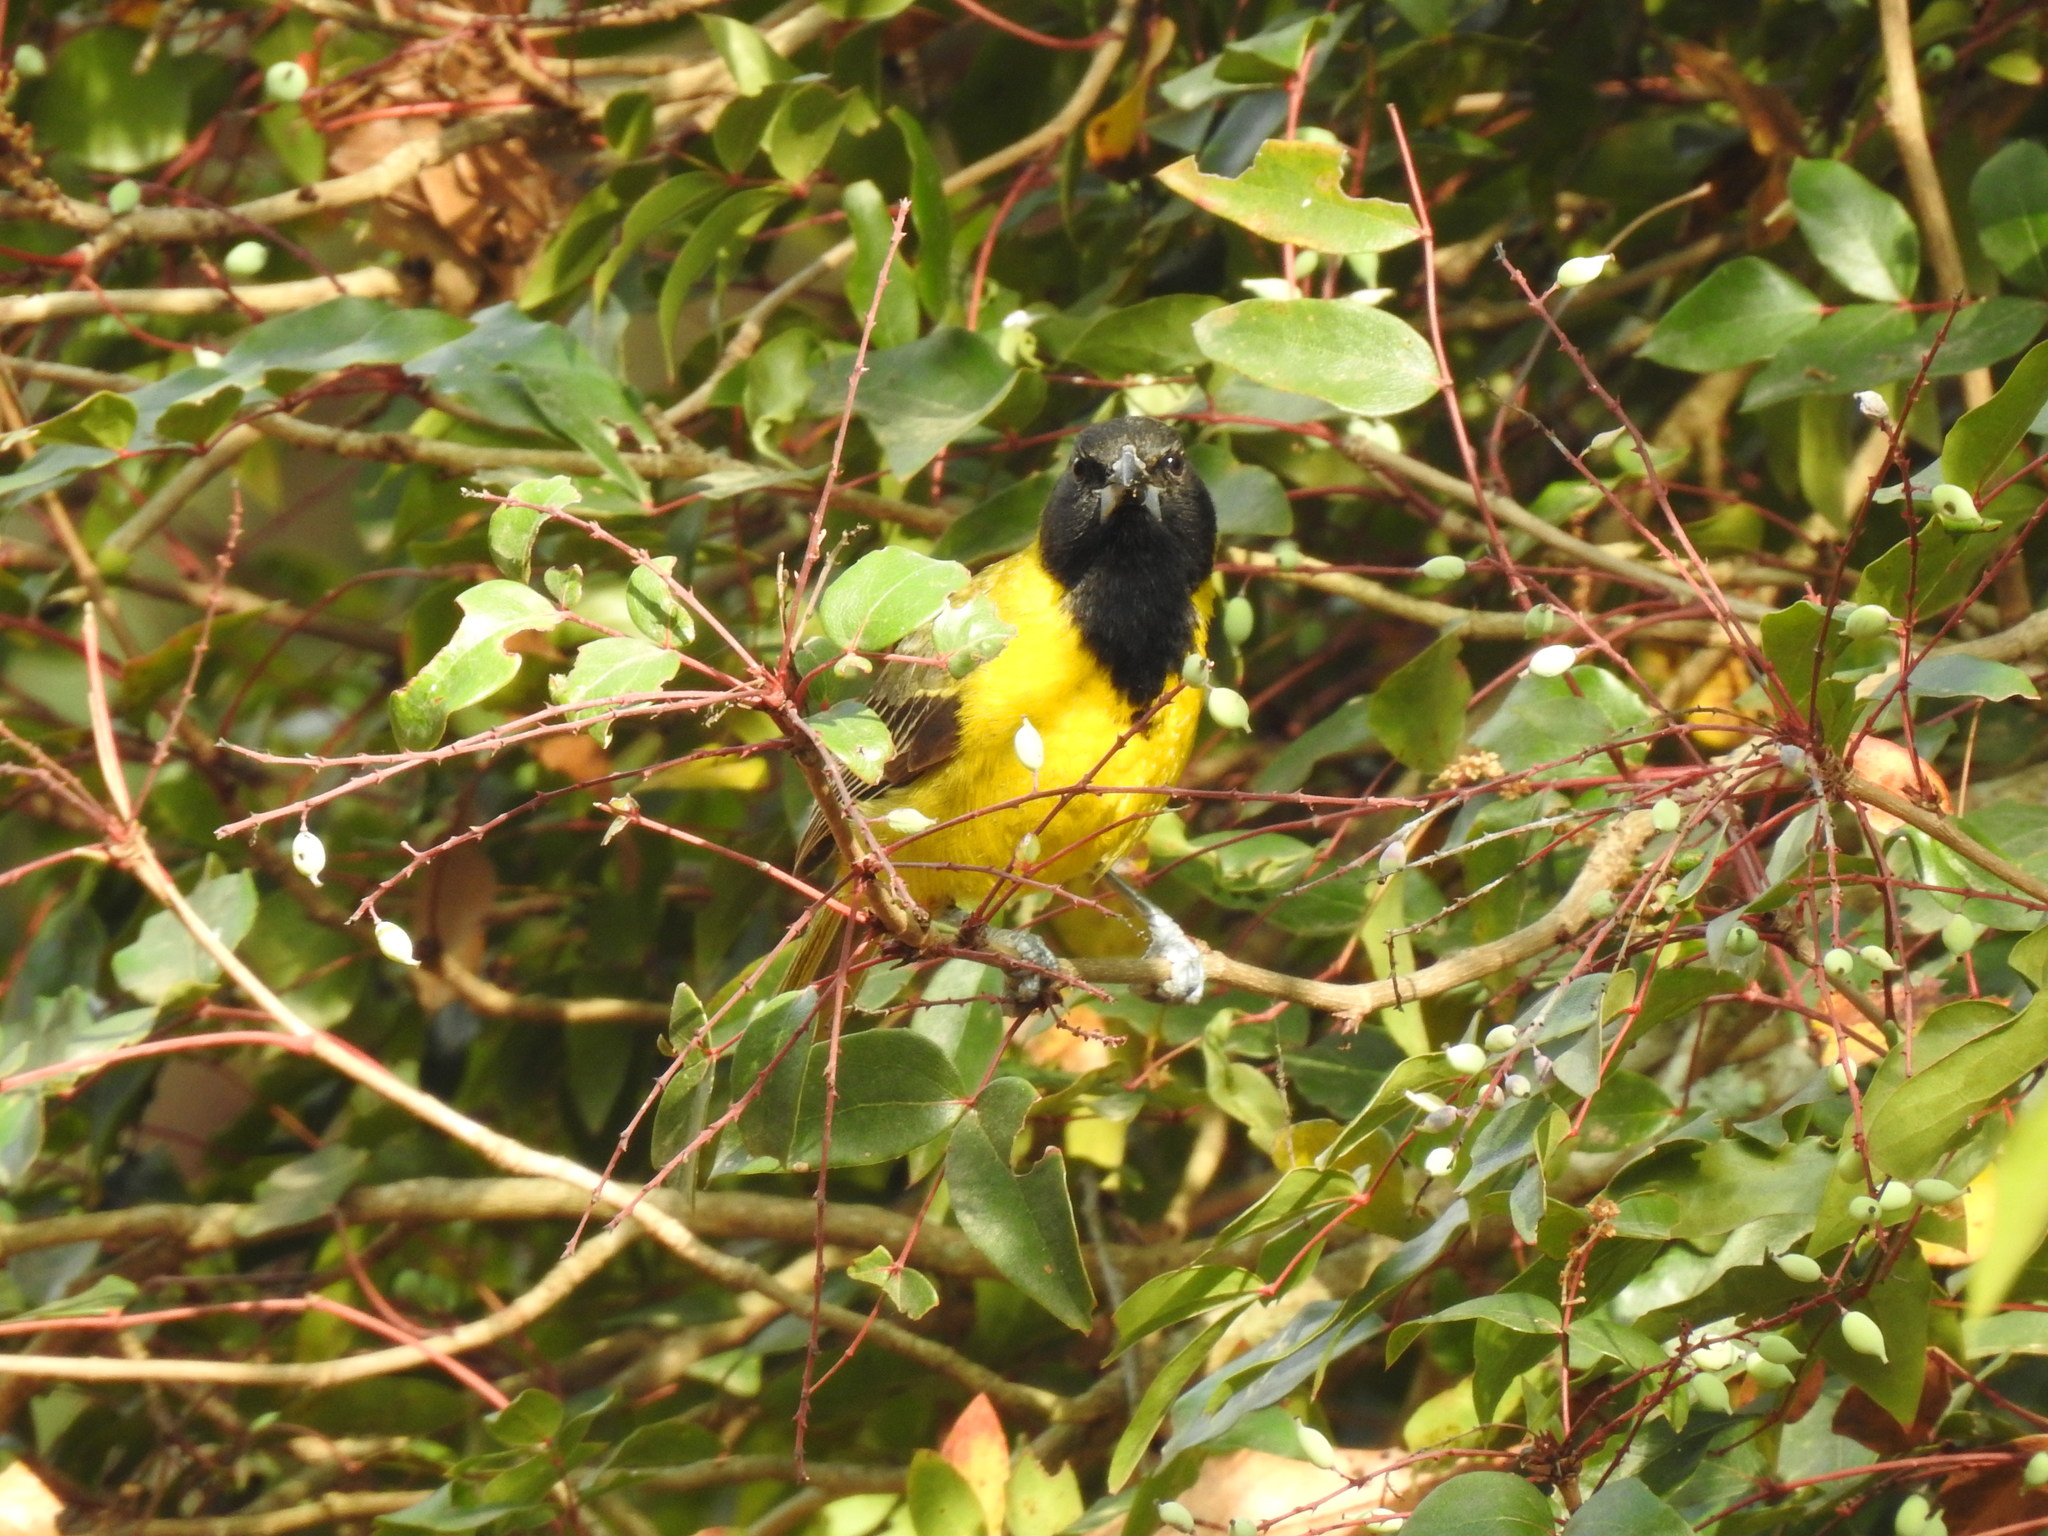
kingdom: Animalia
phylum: Chordata
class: Aves
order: Passeriformes
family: Icteridae
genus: Icterus
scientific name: Icterus graduacauda
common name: Audubon's oriole
